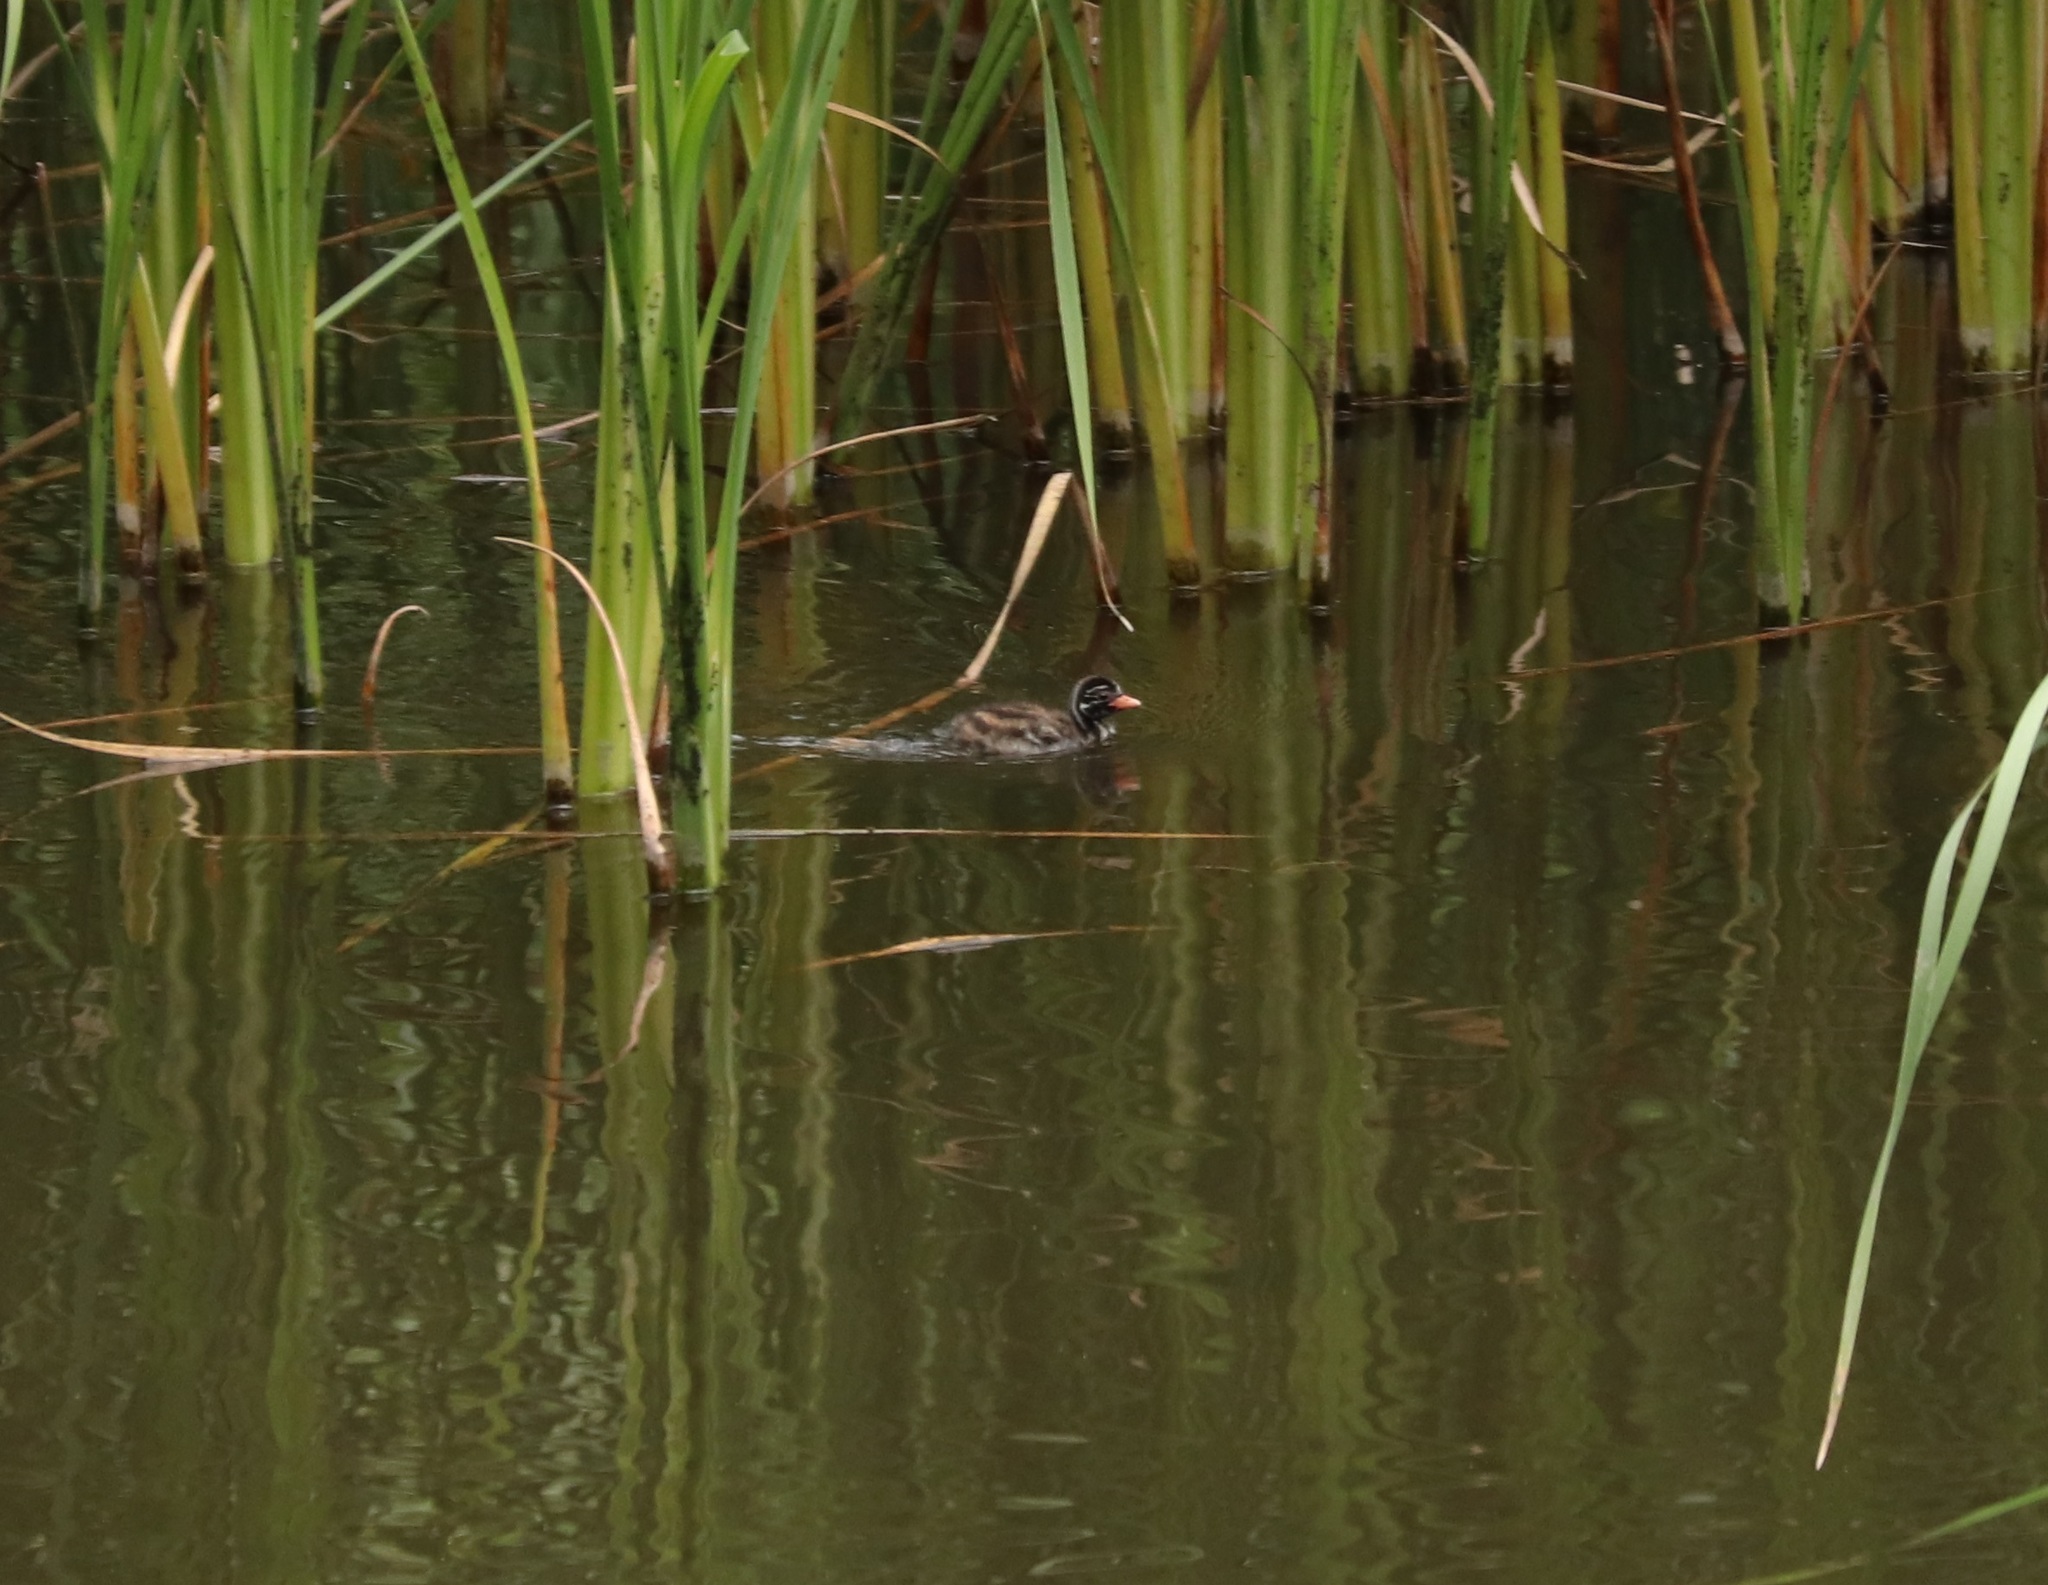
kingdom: Animalia
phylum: Chordata
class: Aves
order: Podicipediformes
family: Podicipedidae
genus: Tachybaptus
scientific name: Tachybaptus ruficollis
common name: Little grebe
